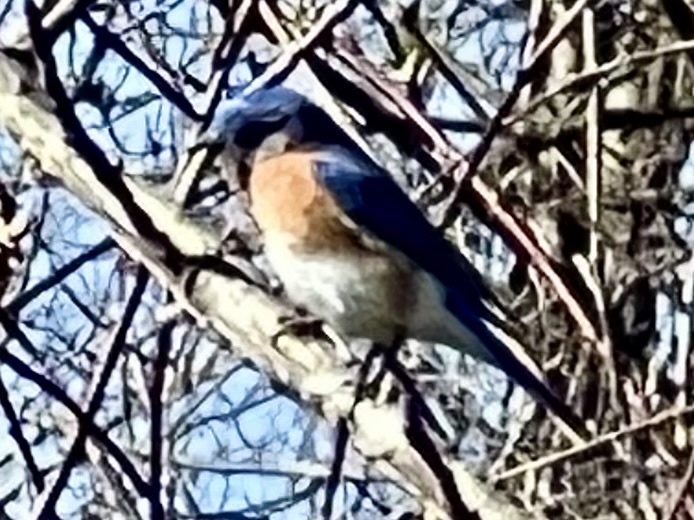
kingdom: Animalia
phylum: Chordata
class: Aves
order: Passeriformes
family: Turdidae
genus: Sialia
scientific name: Sialia sialis
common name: Eastern bluebird
